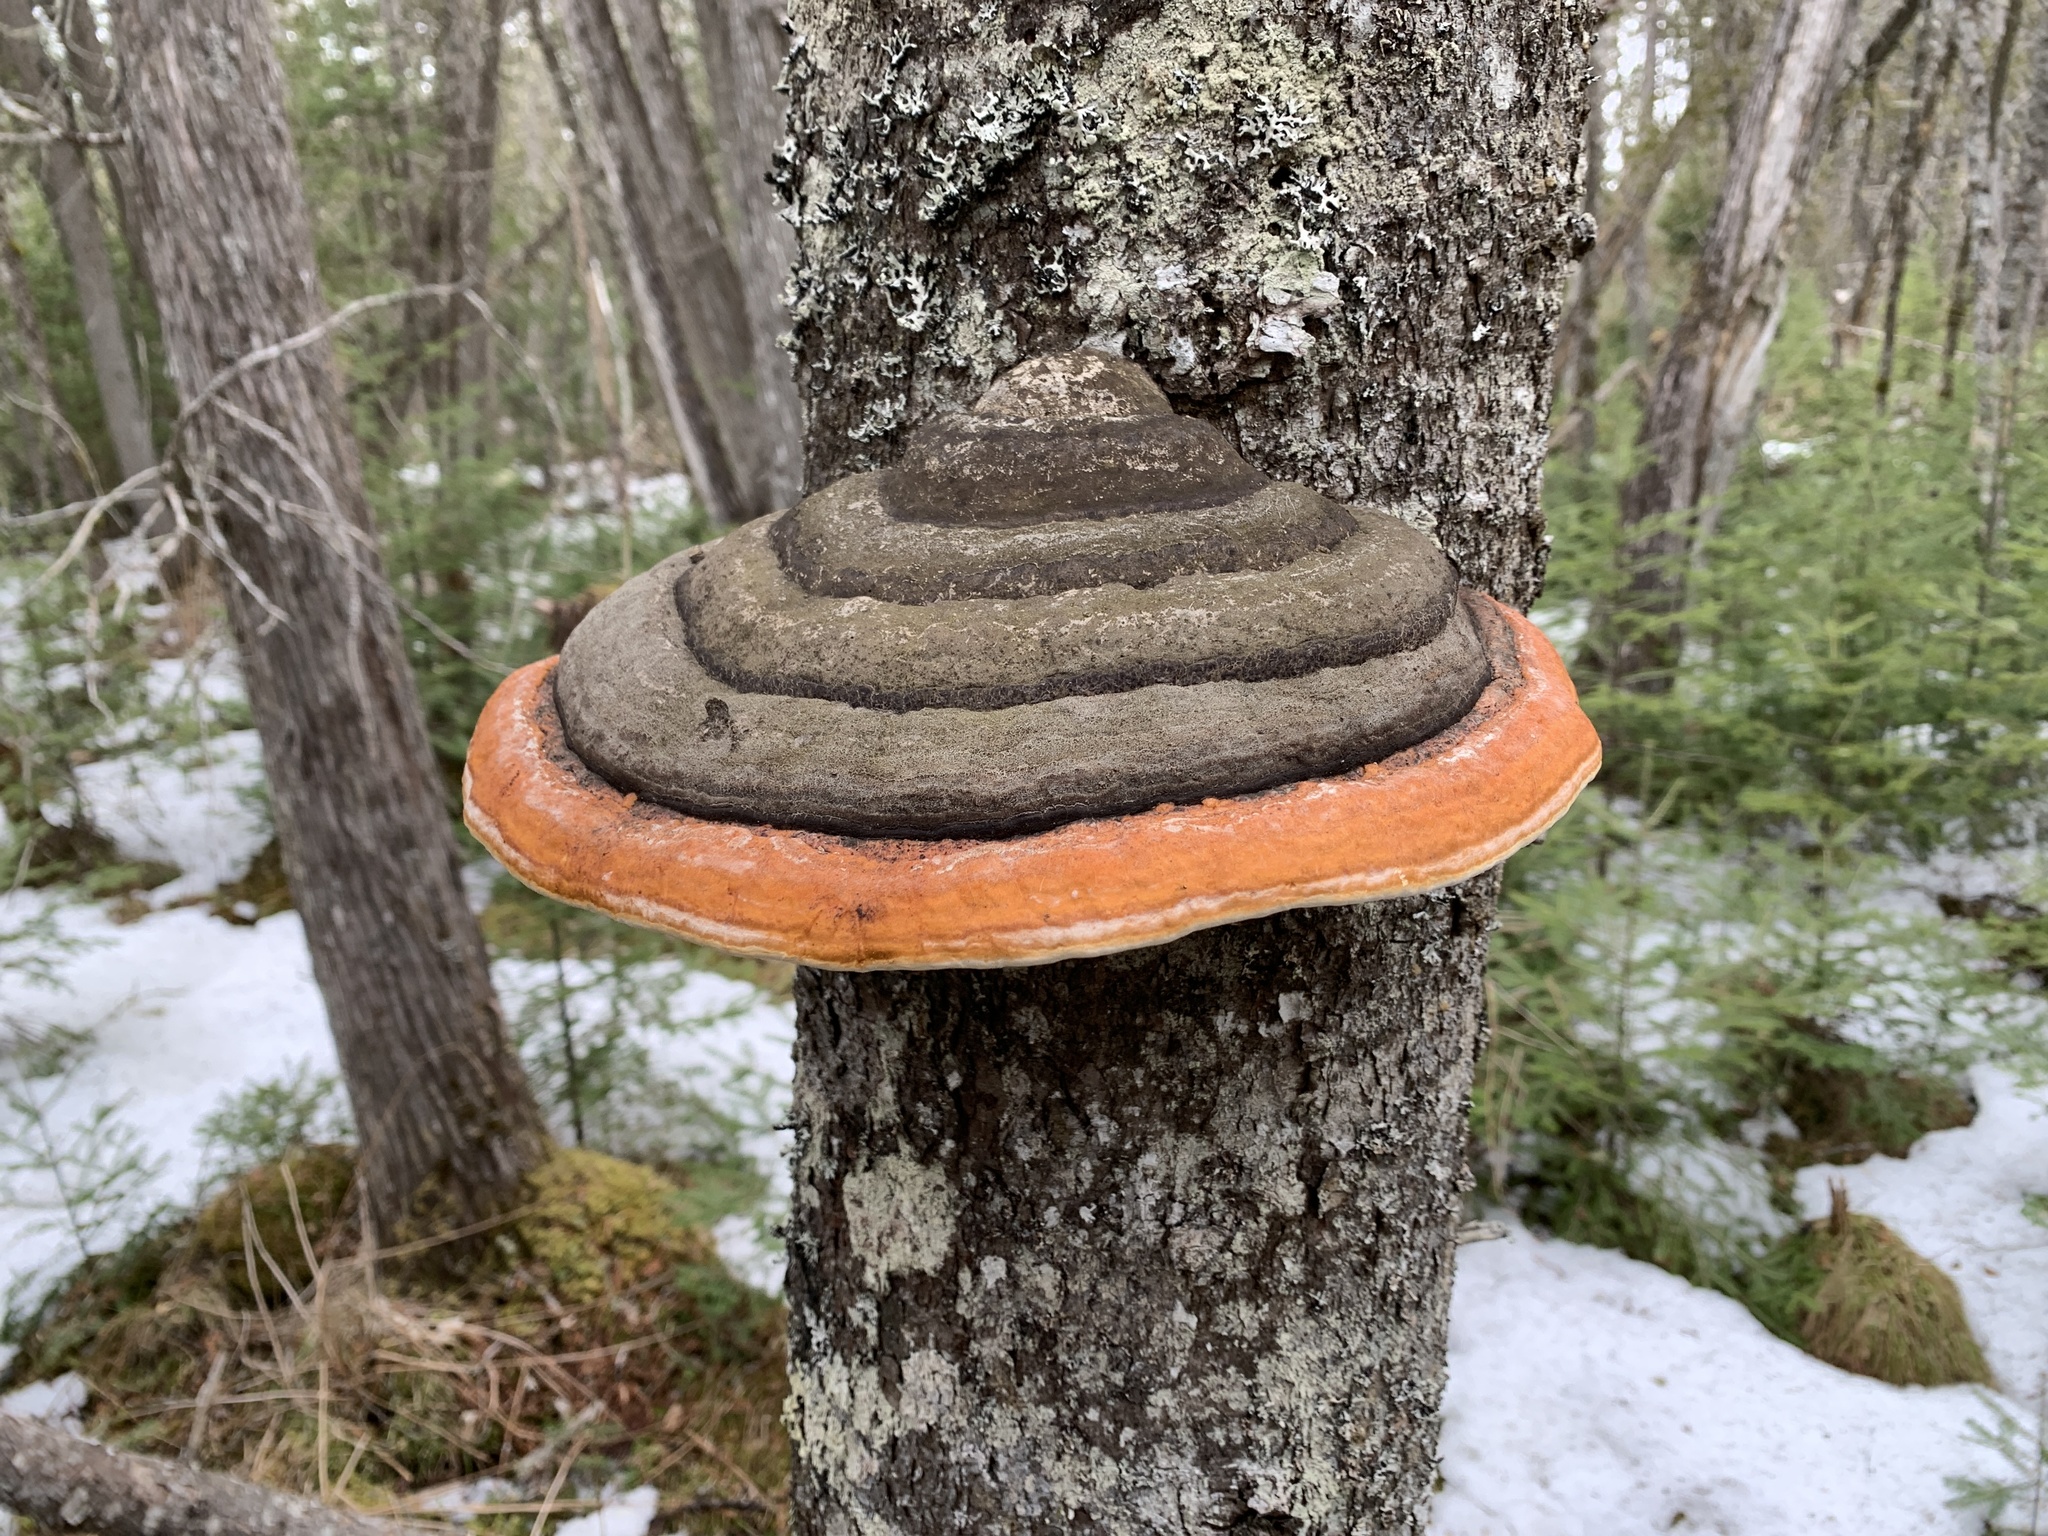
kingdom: Fungi
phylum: Basidiomycota
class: Agaricomycetes
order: Polyporales
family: Fomitopsidaceae
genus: Fomitopsis
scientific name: Fomitopsis mounceae
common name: Northern red belt
